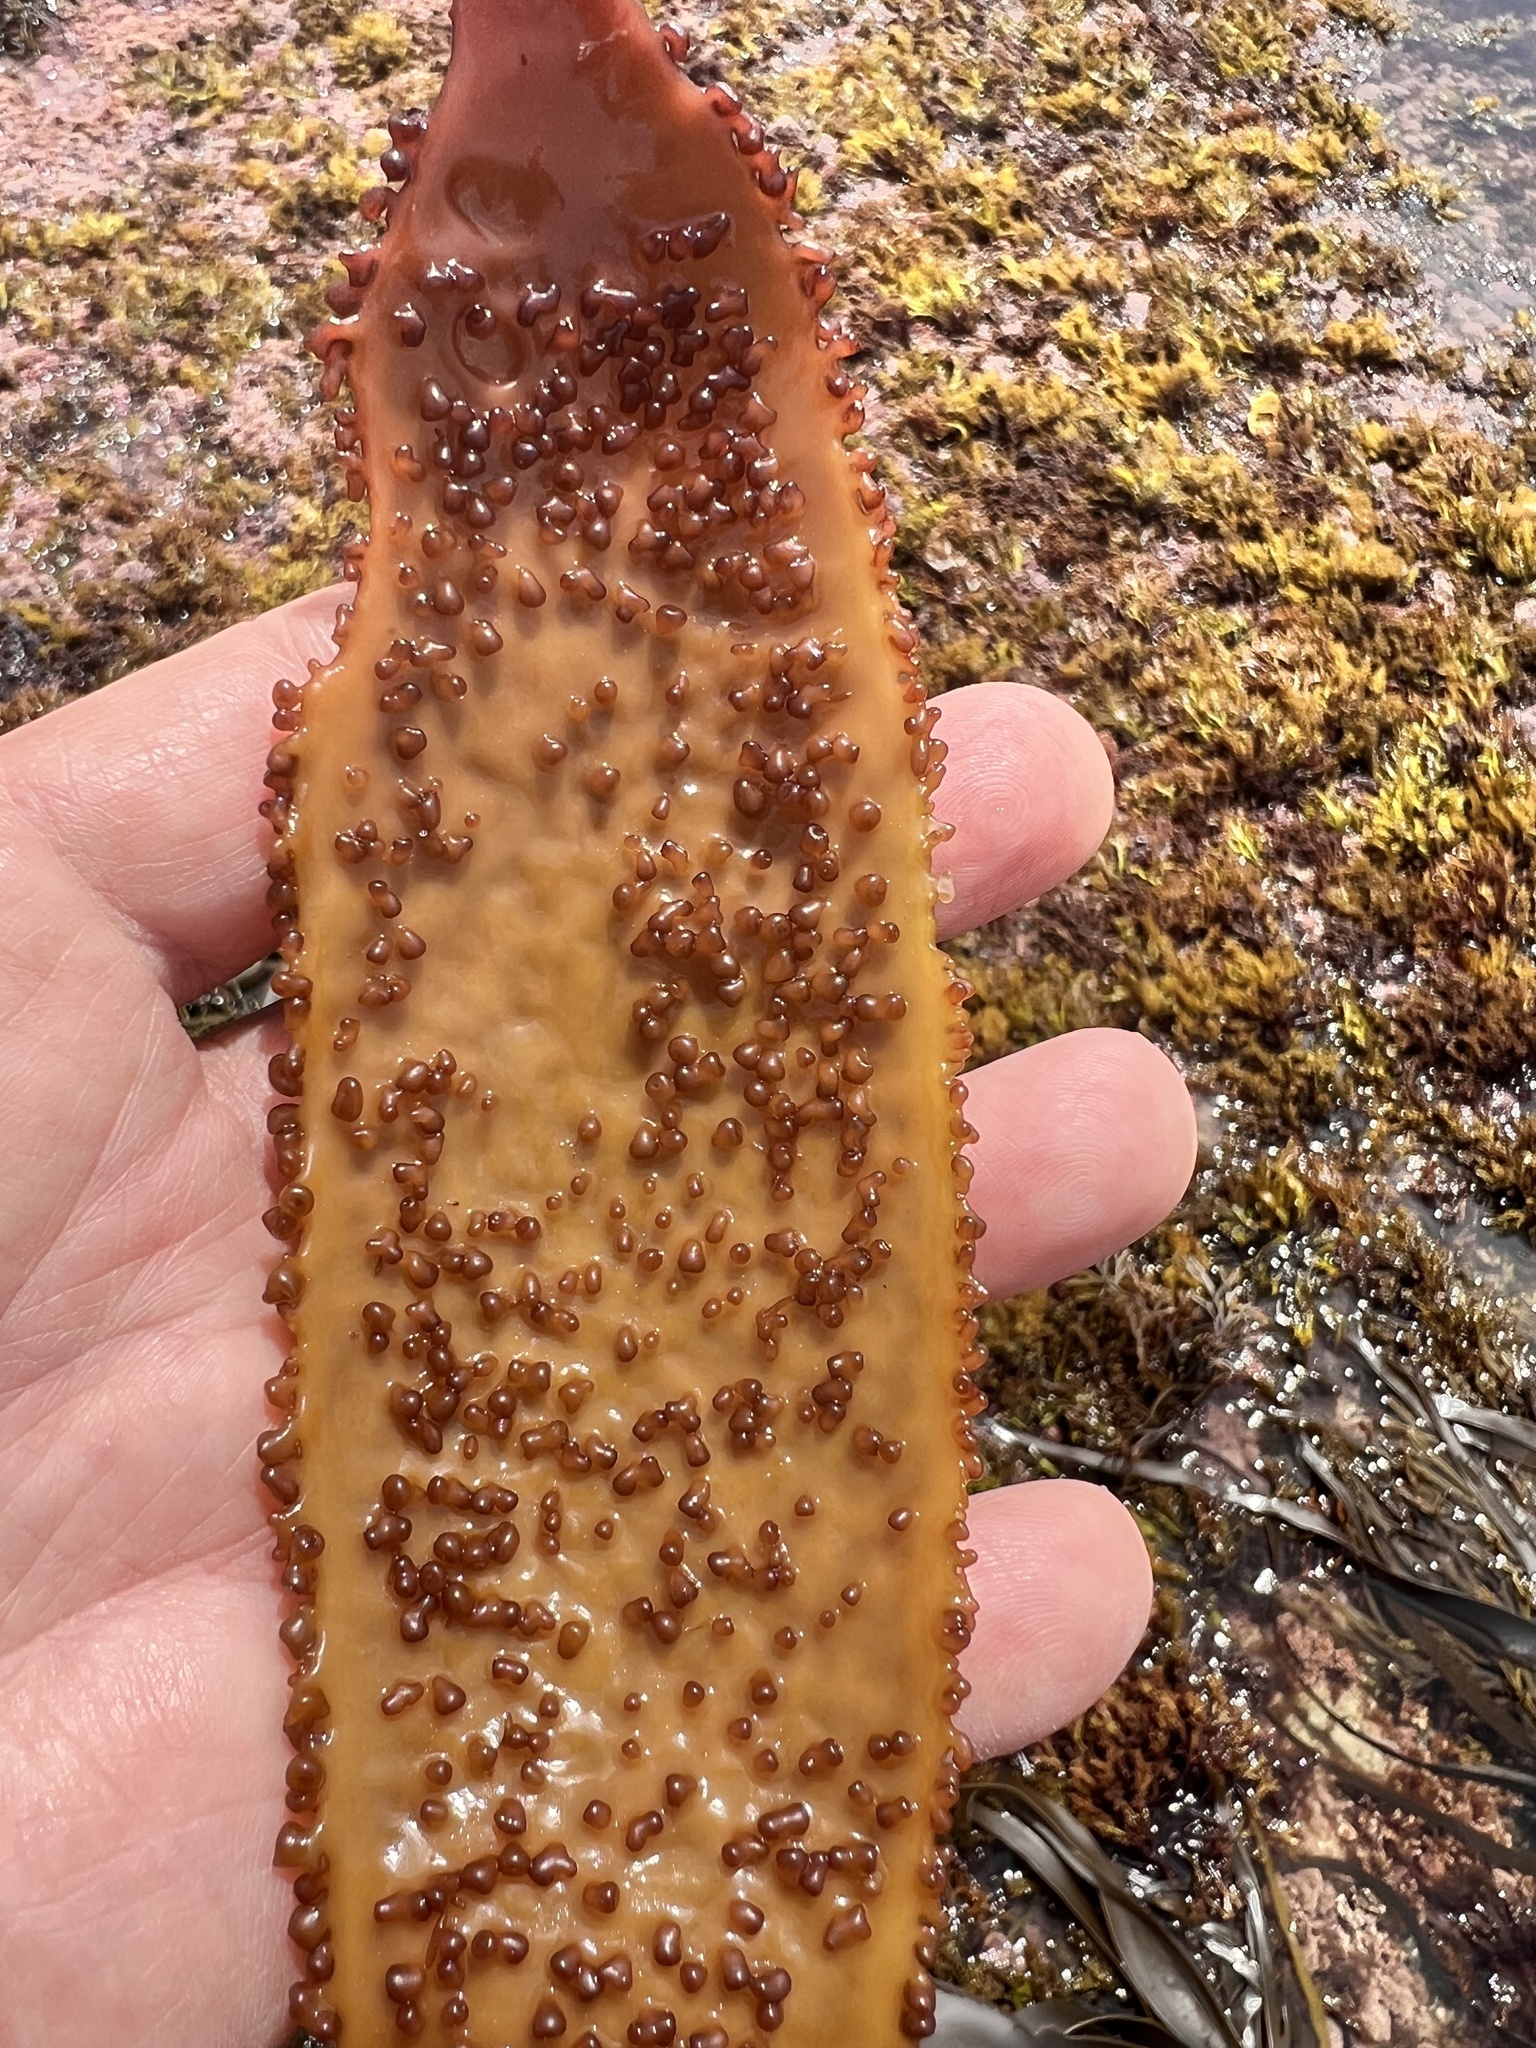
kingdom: Plantae
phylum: Rhodophyta
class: Florideophyceae
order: Gigartinales
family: Gigartinaceae
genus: Sarcothalia
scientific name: Sarcothalia radula
